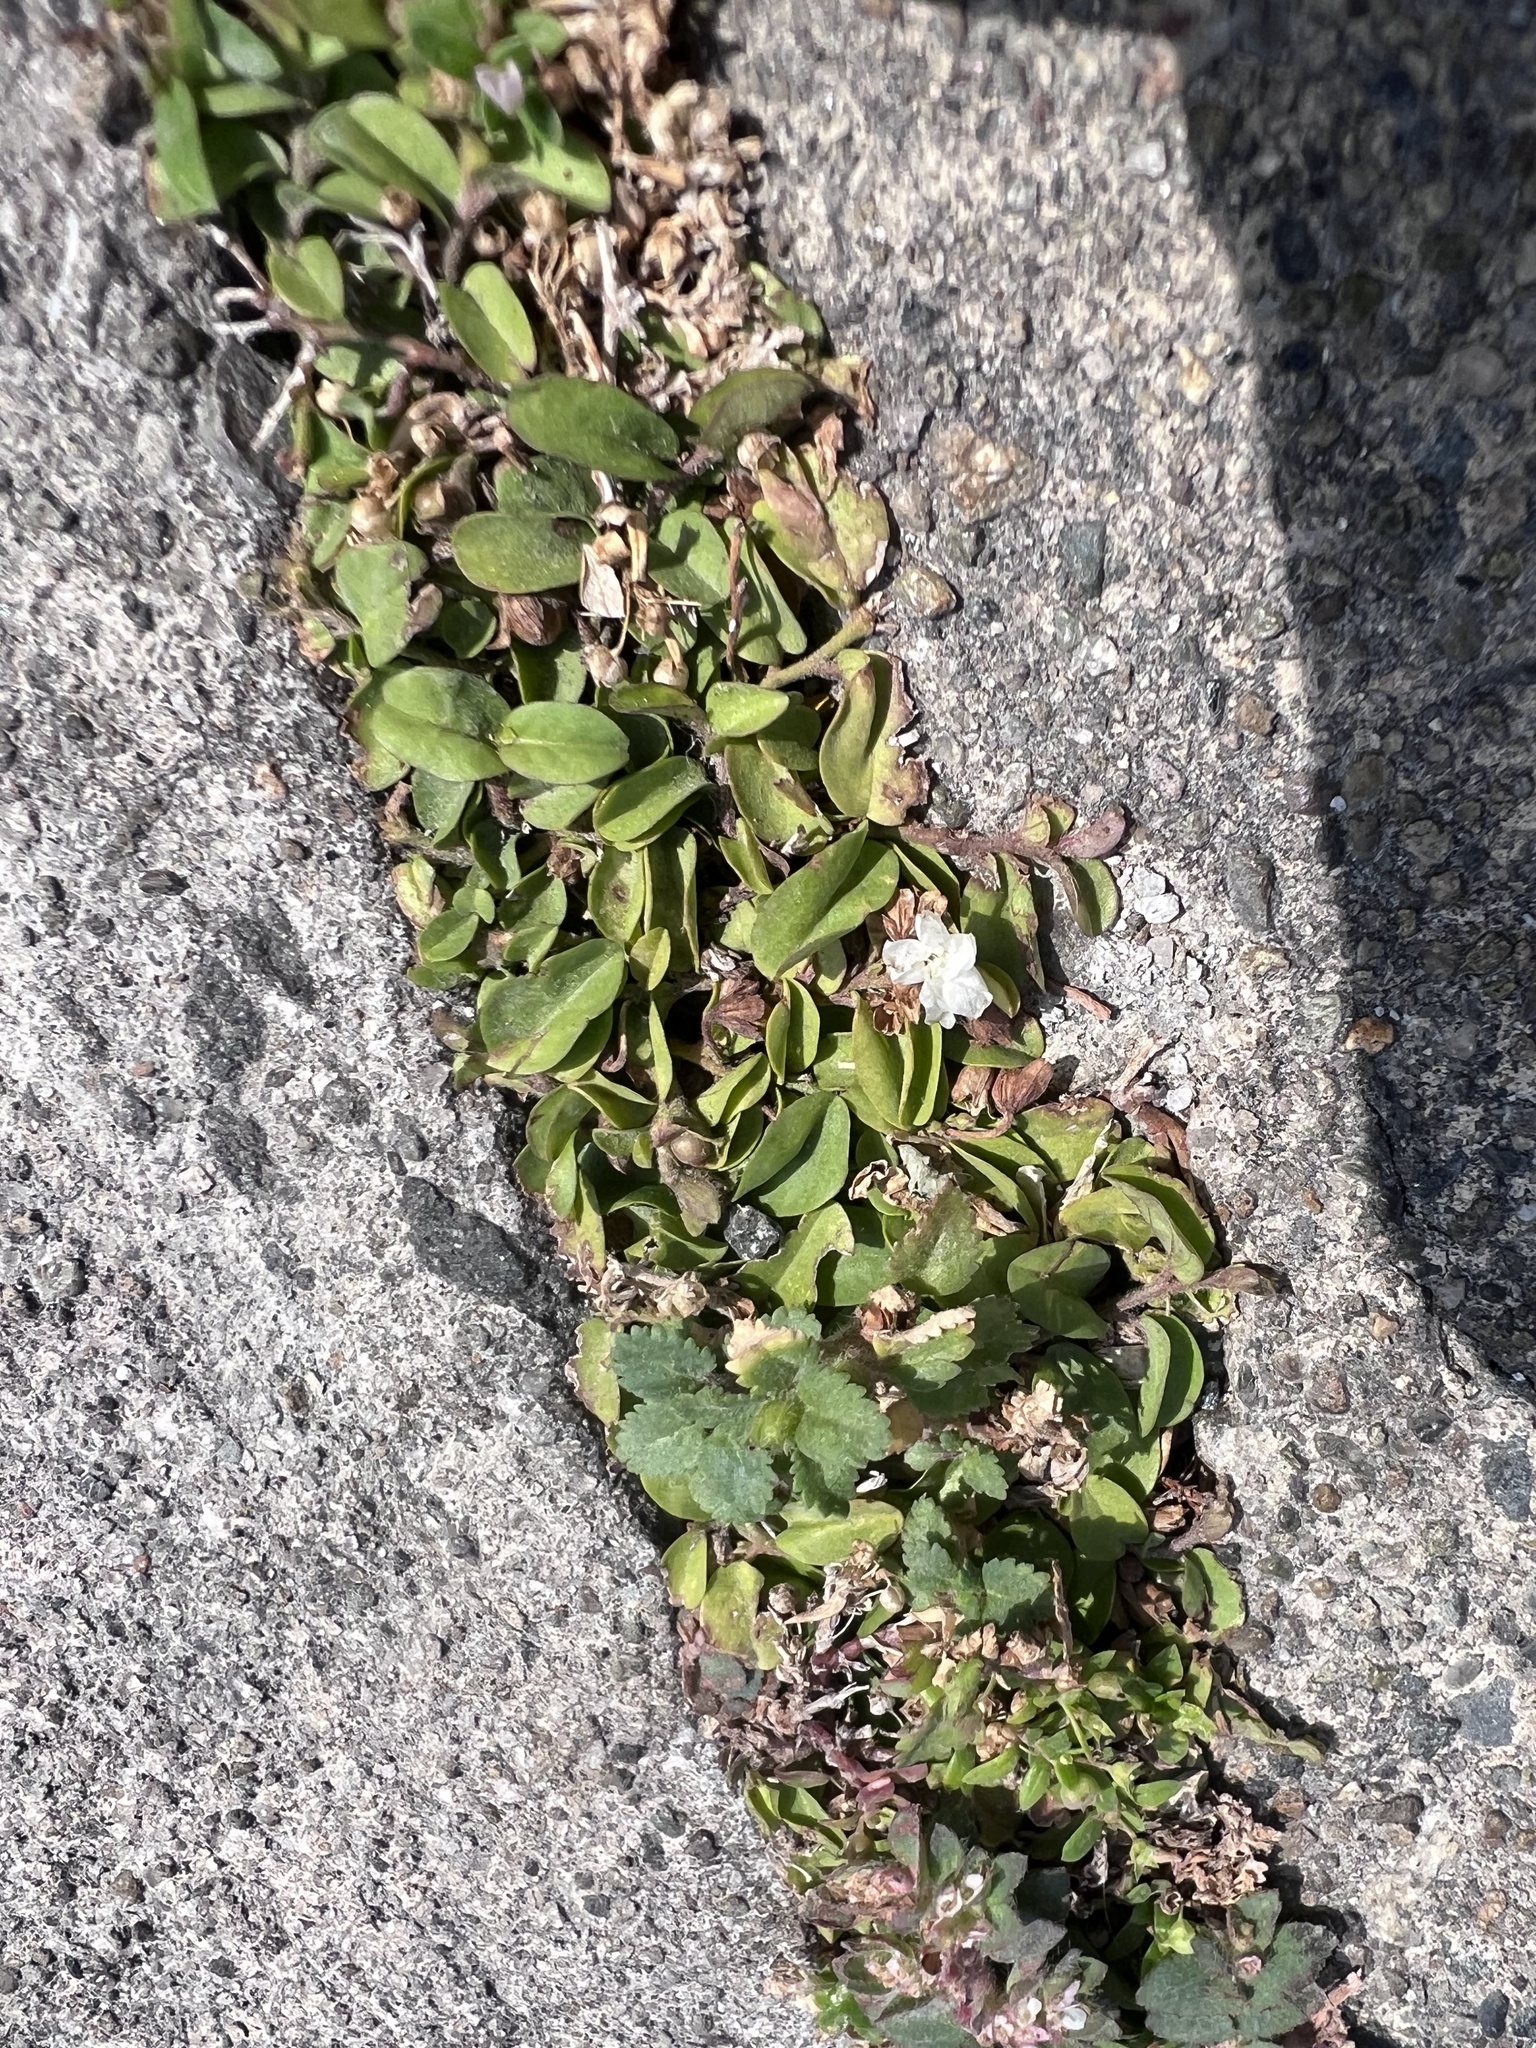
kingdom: Plantae
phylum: Tracheophyta
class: Magnoliopsida
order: Solanales
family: Convolvulaceae
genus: Evolvulus
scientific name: Evolvulus nummularius
